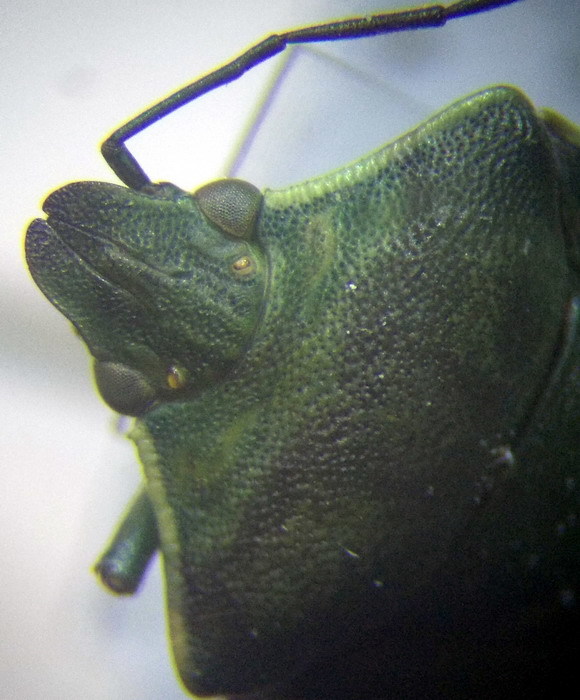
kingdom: Animalia
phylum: Arthropoda
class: Insecta
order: Hemiptera
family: Pentatomidae
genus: Brachynema
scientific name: Brachynema germarii
